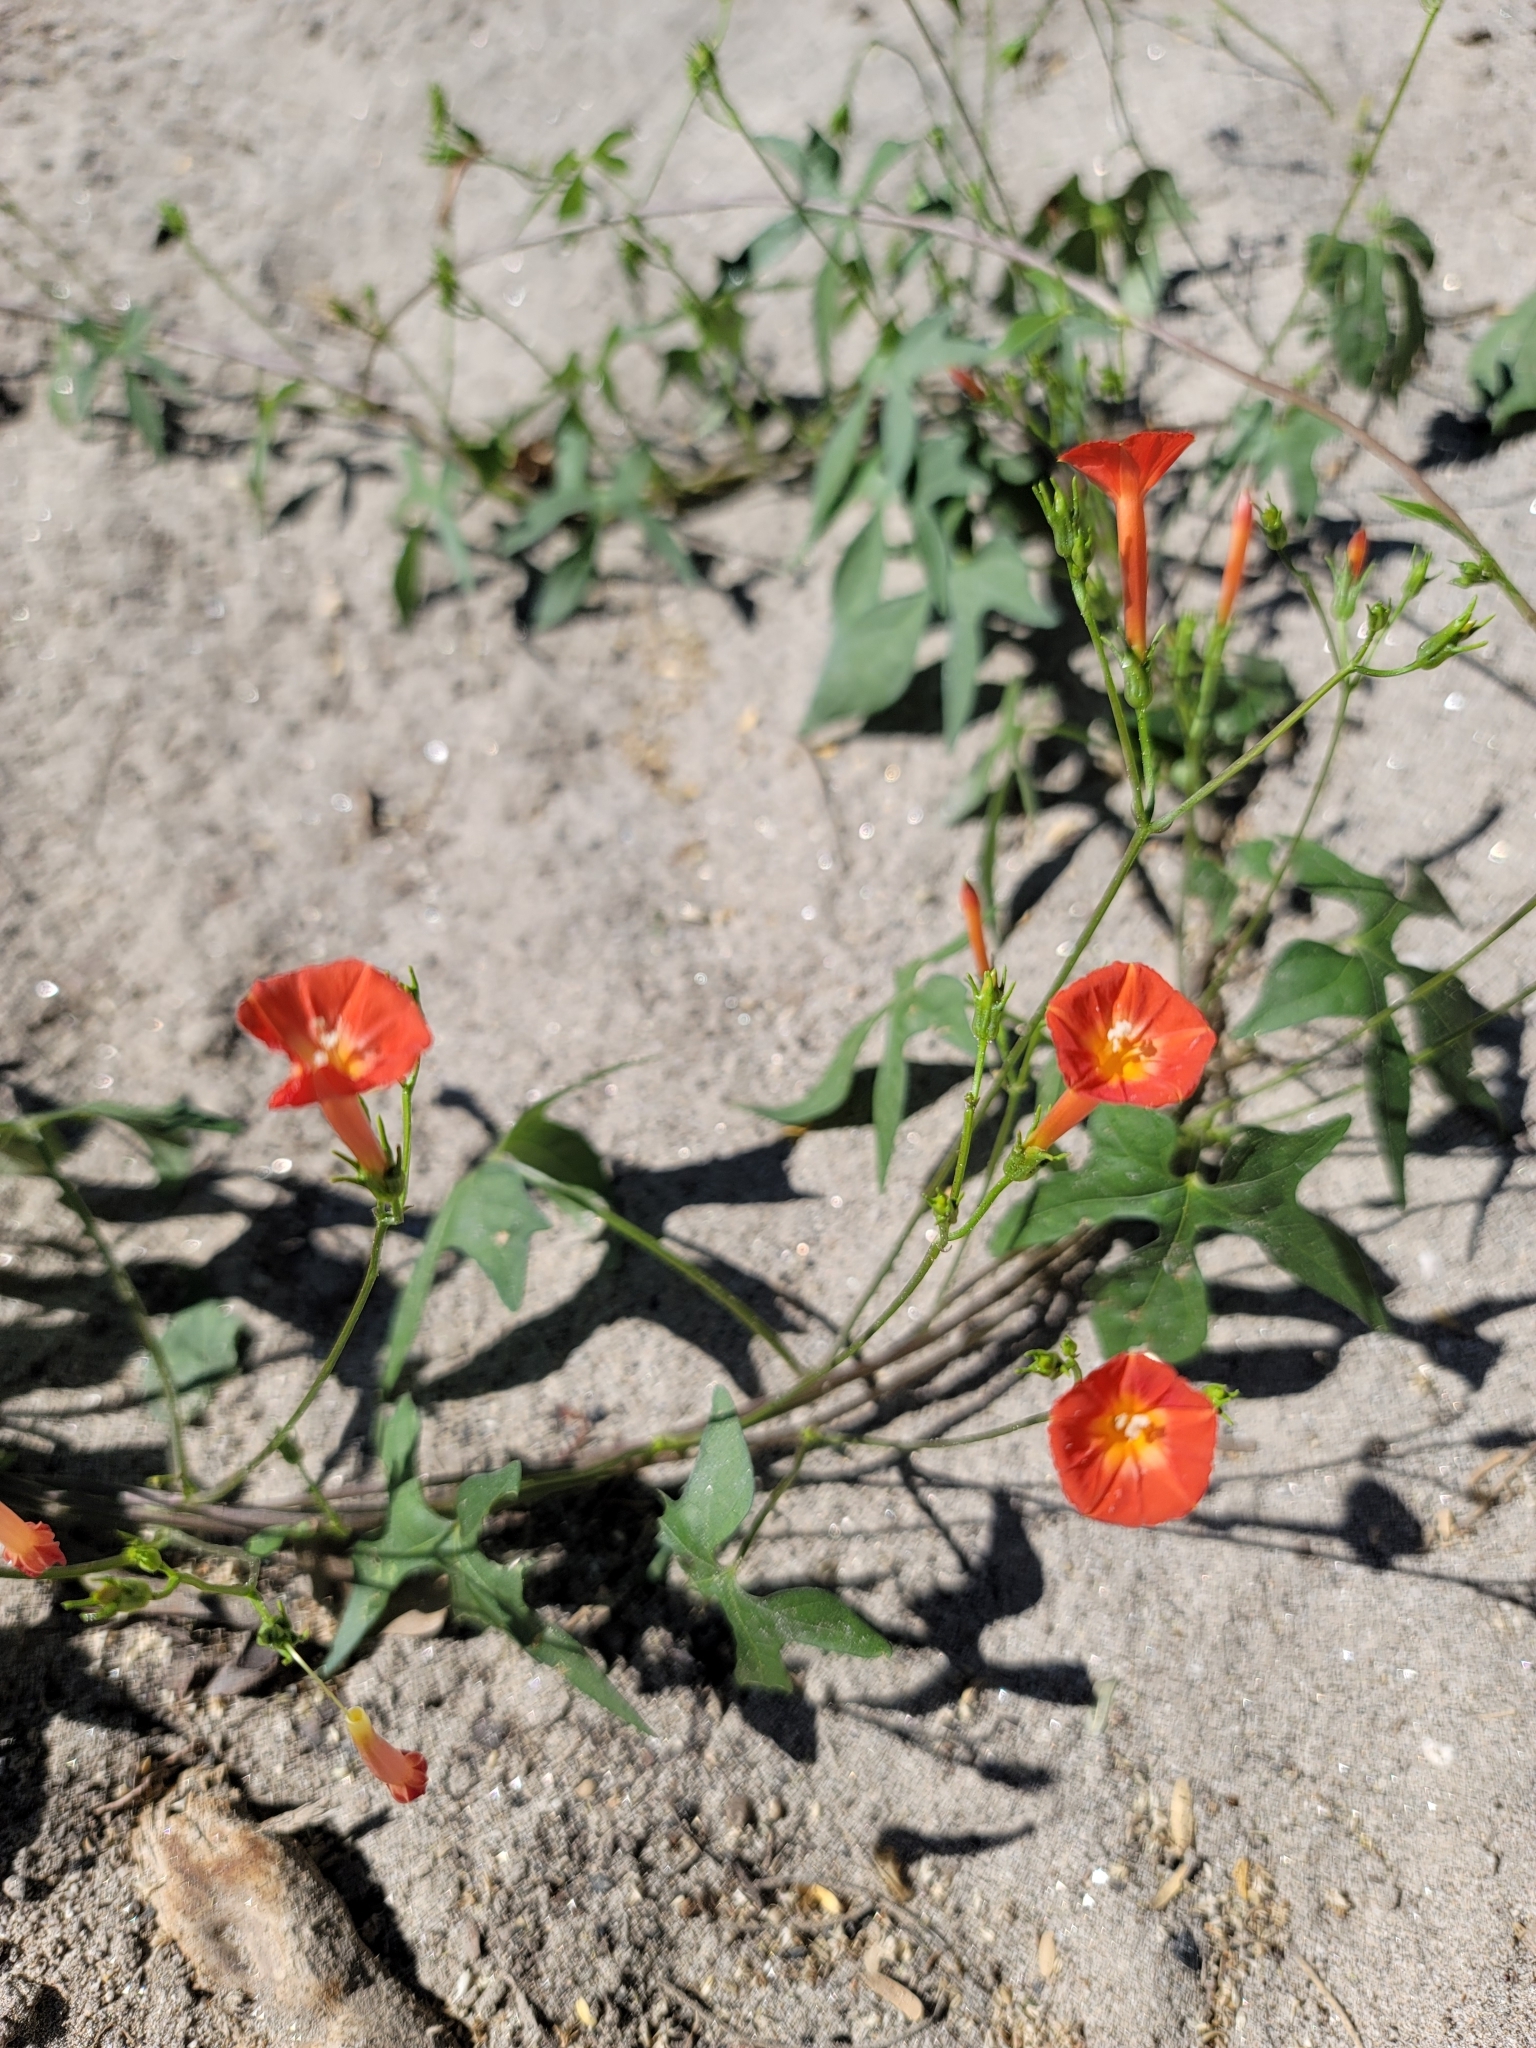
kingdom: Plantae
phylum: Tracheophyta
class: Magnoliopsida
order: Solanales
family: Convolvulaceae
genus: Ipomoea
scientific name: Ipomoea cristulata
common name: Trans-pecos morning-glory
